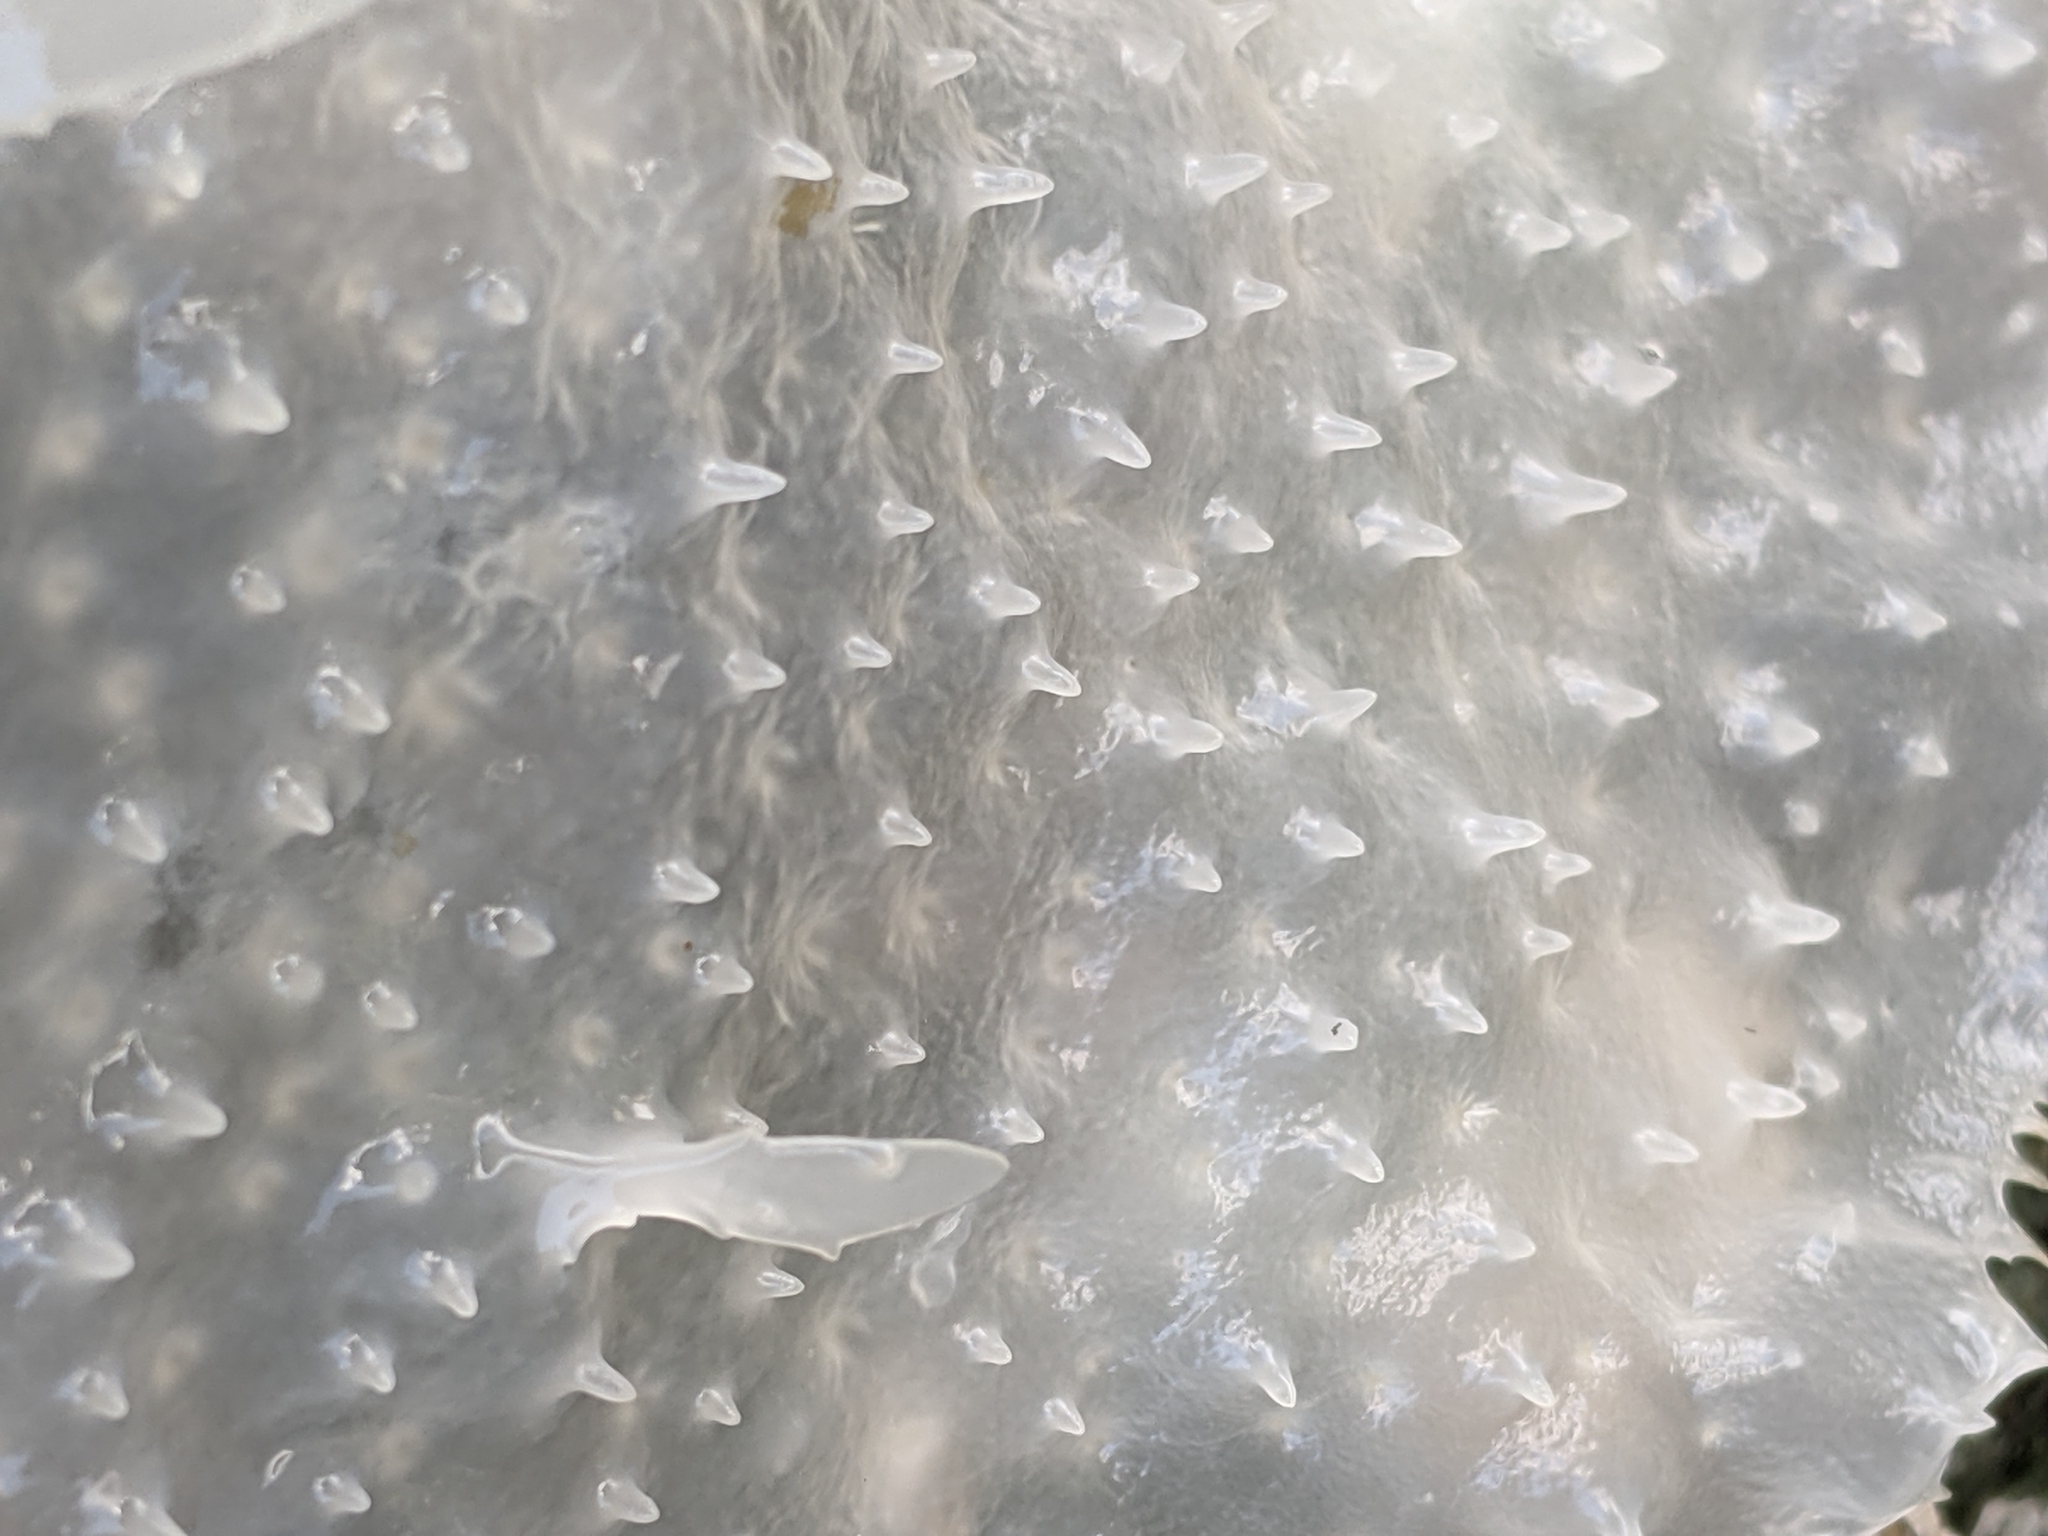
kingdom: Plantae
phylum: Rhodophyta
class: Florideophyceae
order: Gigartinales
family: Gigartinaceae
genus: Chondracanthus
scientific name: Chondracanthus exasperatus
